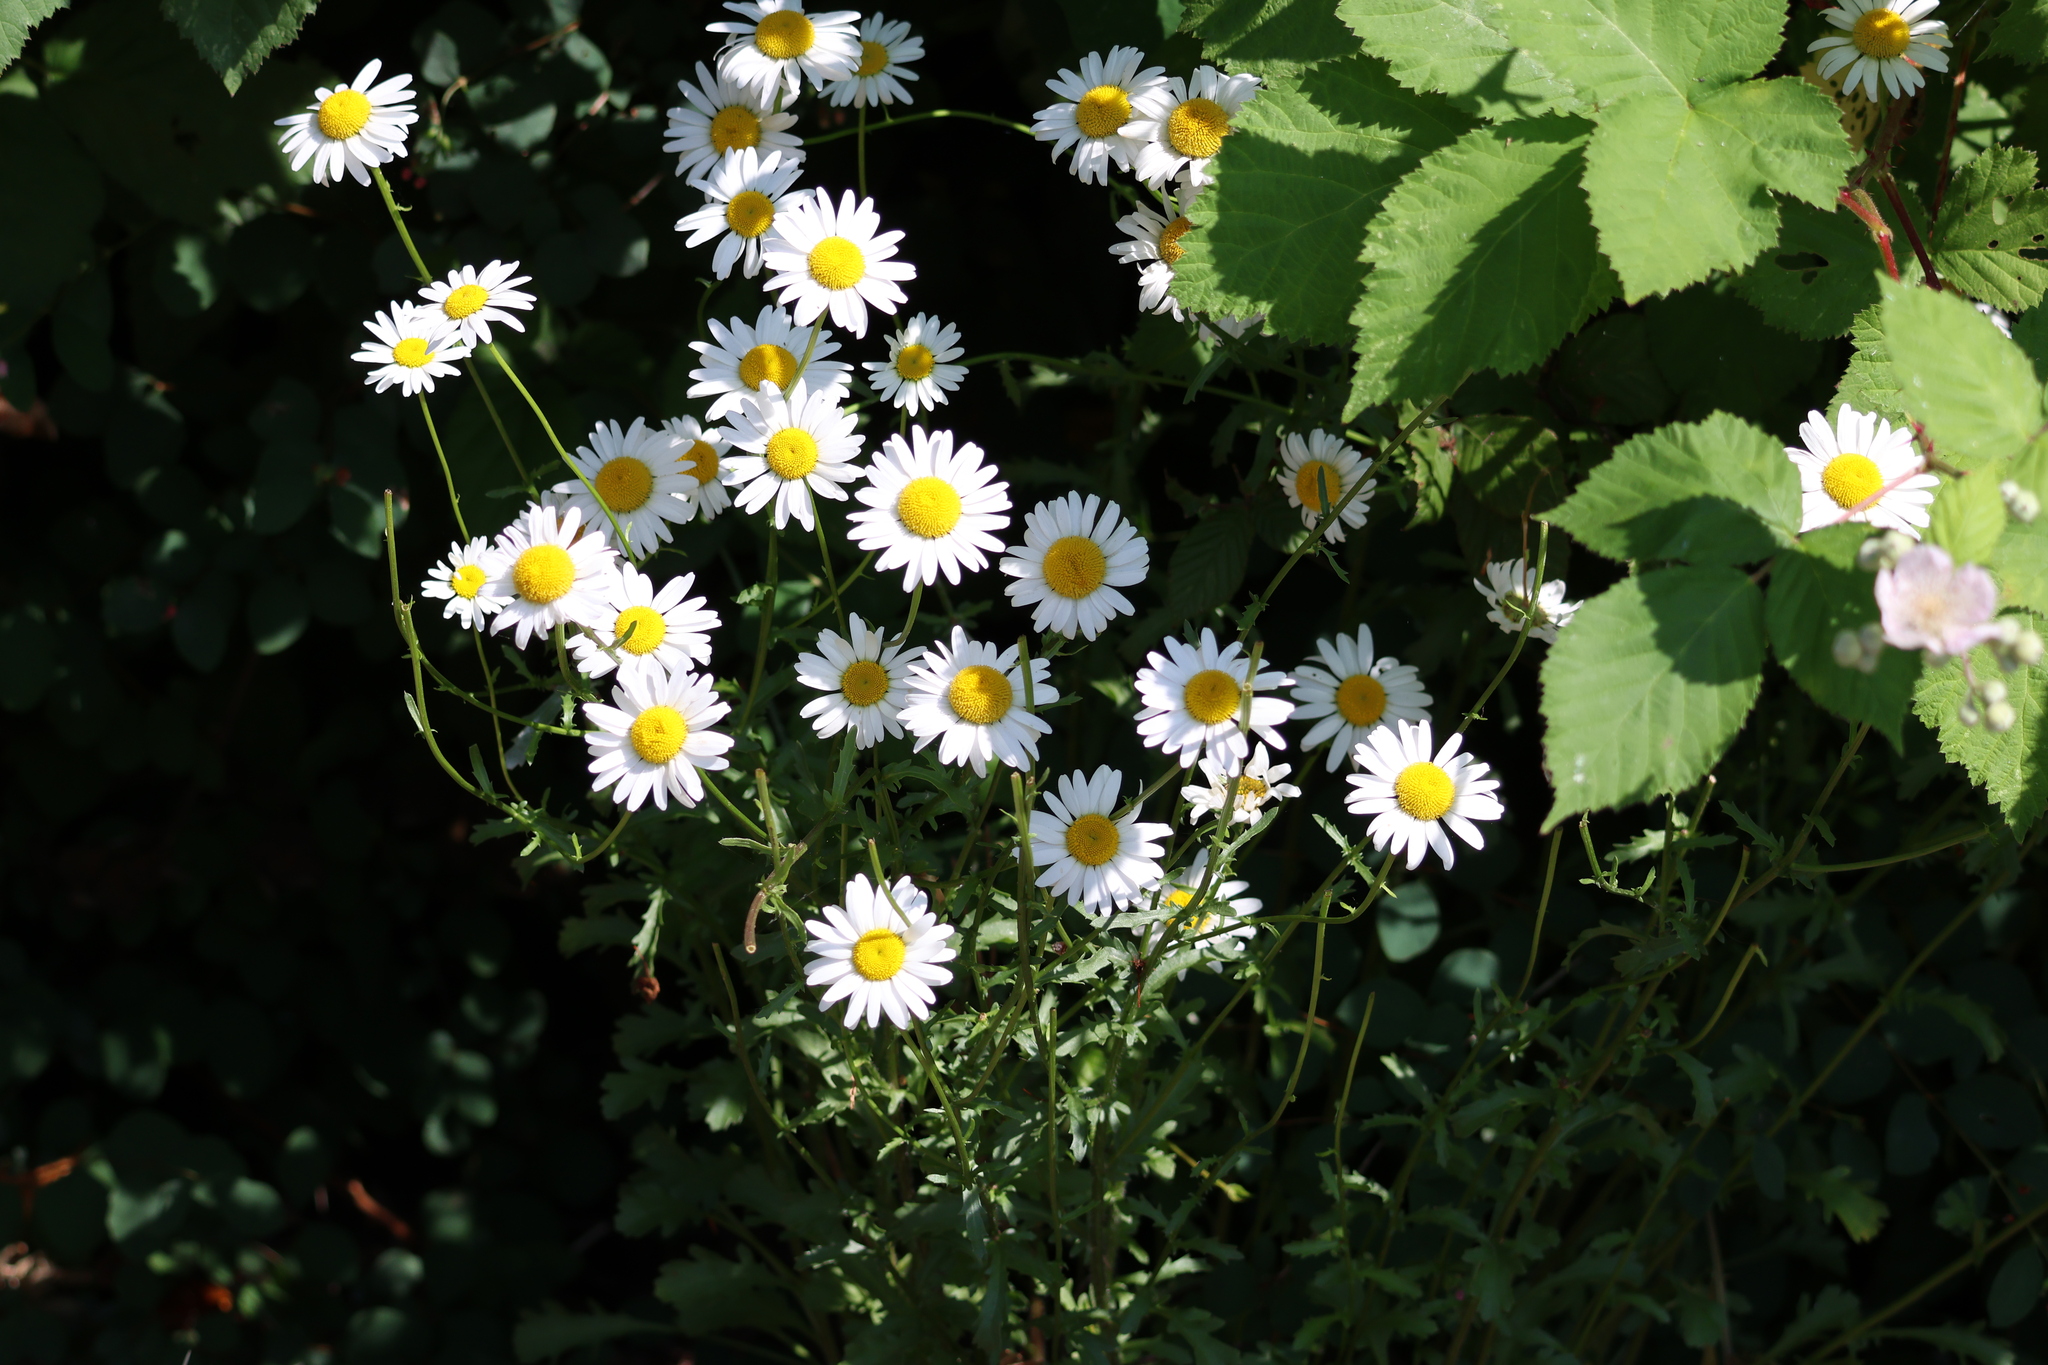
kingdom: Plantae
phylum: Tracheophyta
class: Magnoliopsida
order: Asterales
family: Asteraceae
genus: Leucanthemum
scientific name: Leucanthemum vulgare
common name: Oxeye daisy
